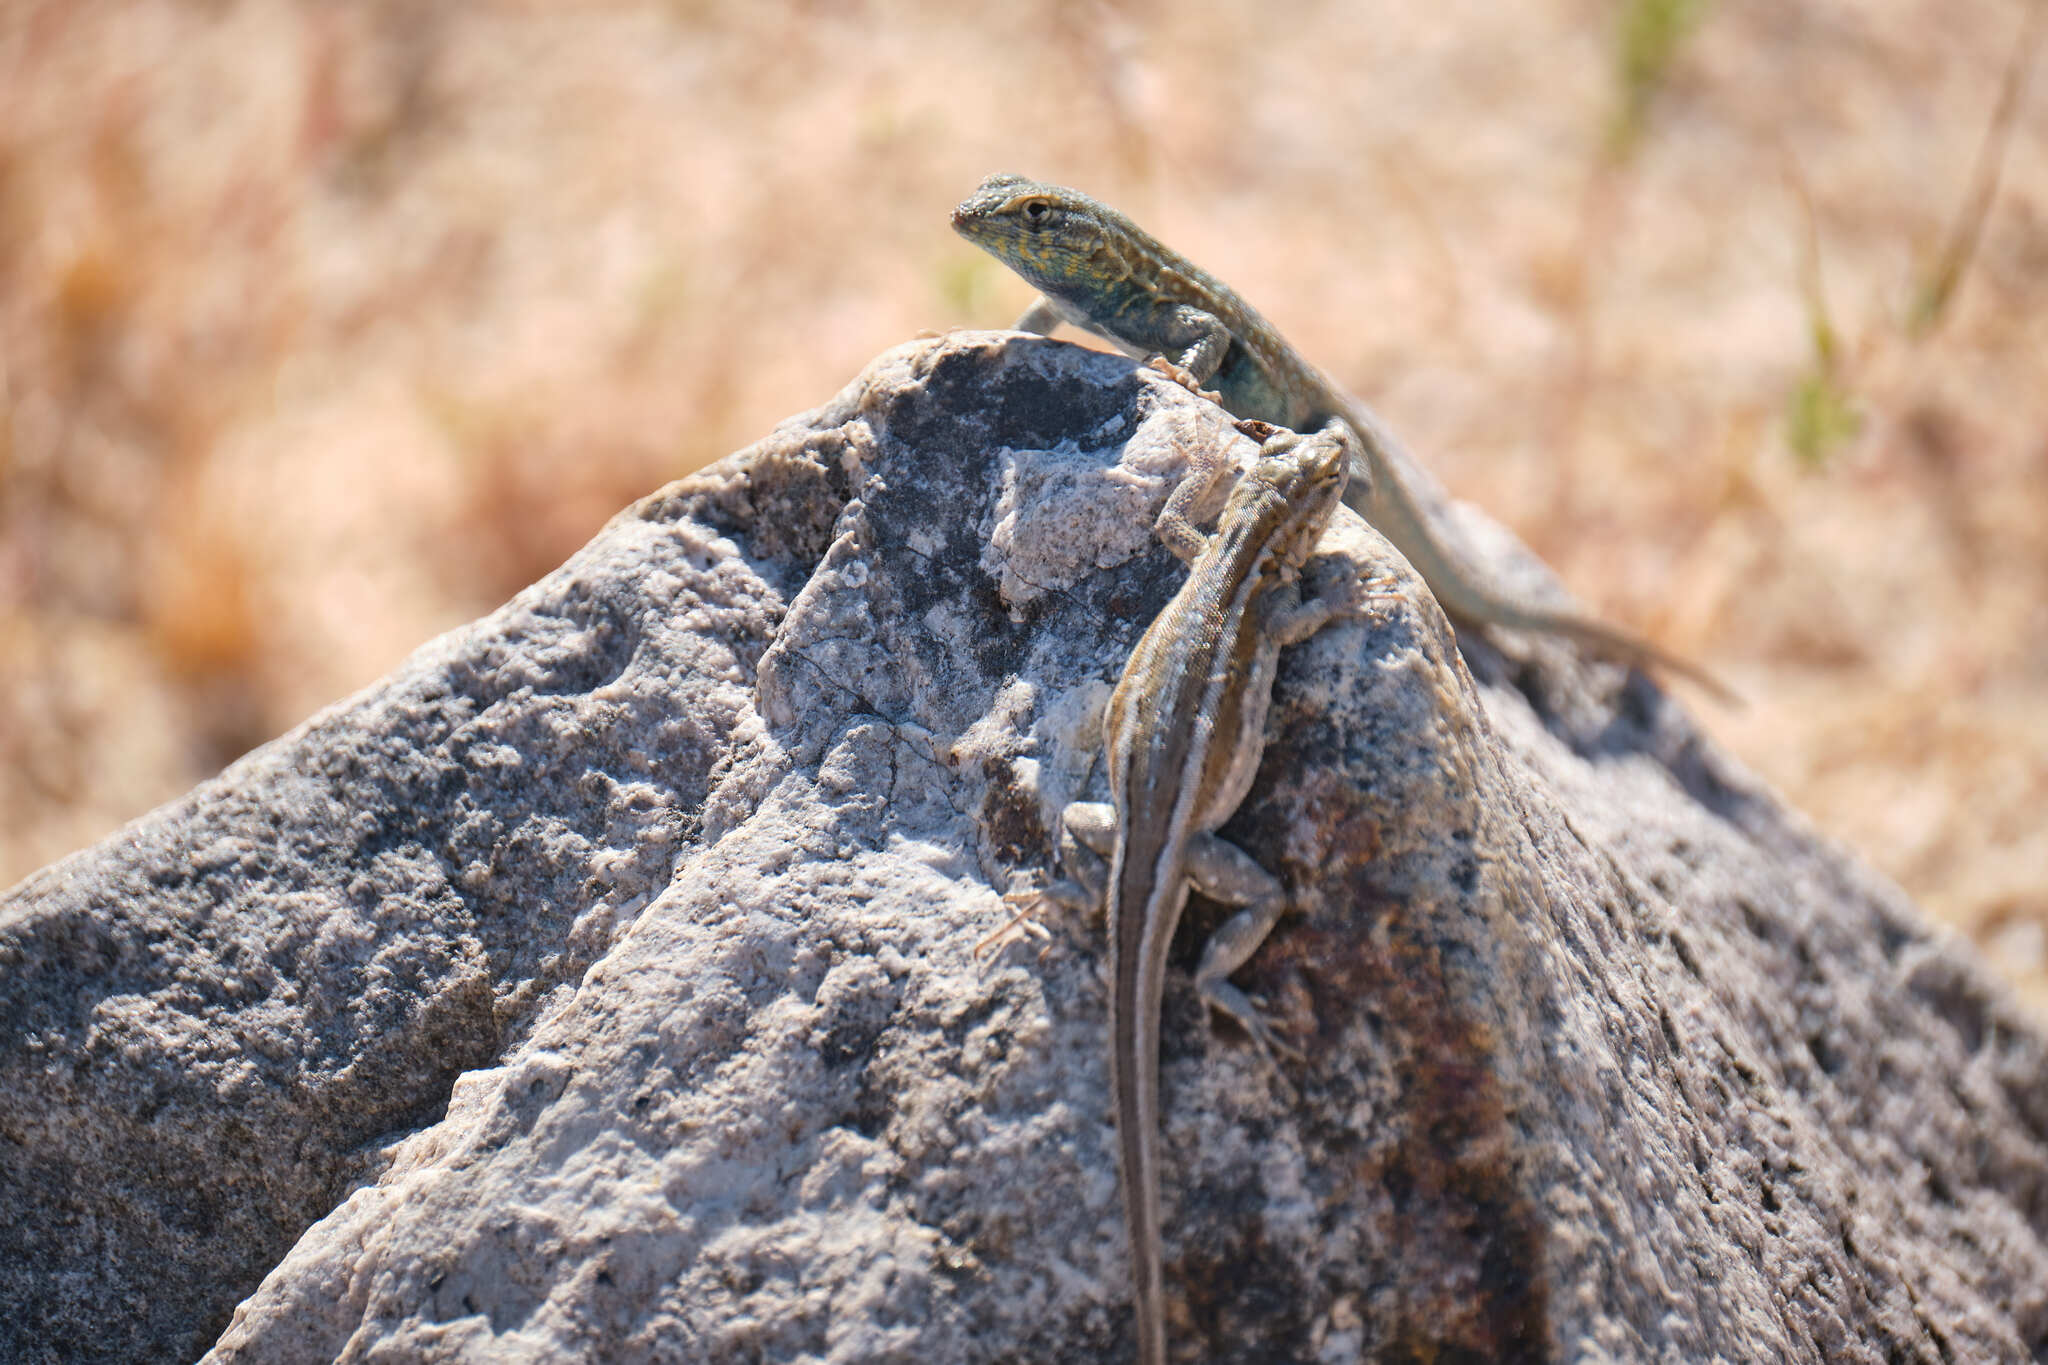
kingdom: Animalia
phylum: Chordata
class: Squamata
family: Phrynosomatidae
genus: Uta
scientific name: Uta stansburiana
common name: Side-blotched lizard
